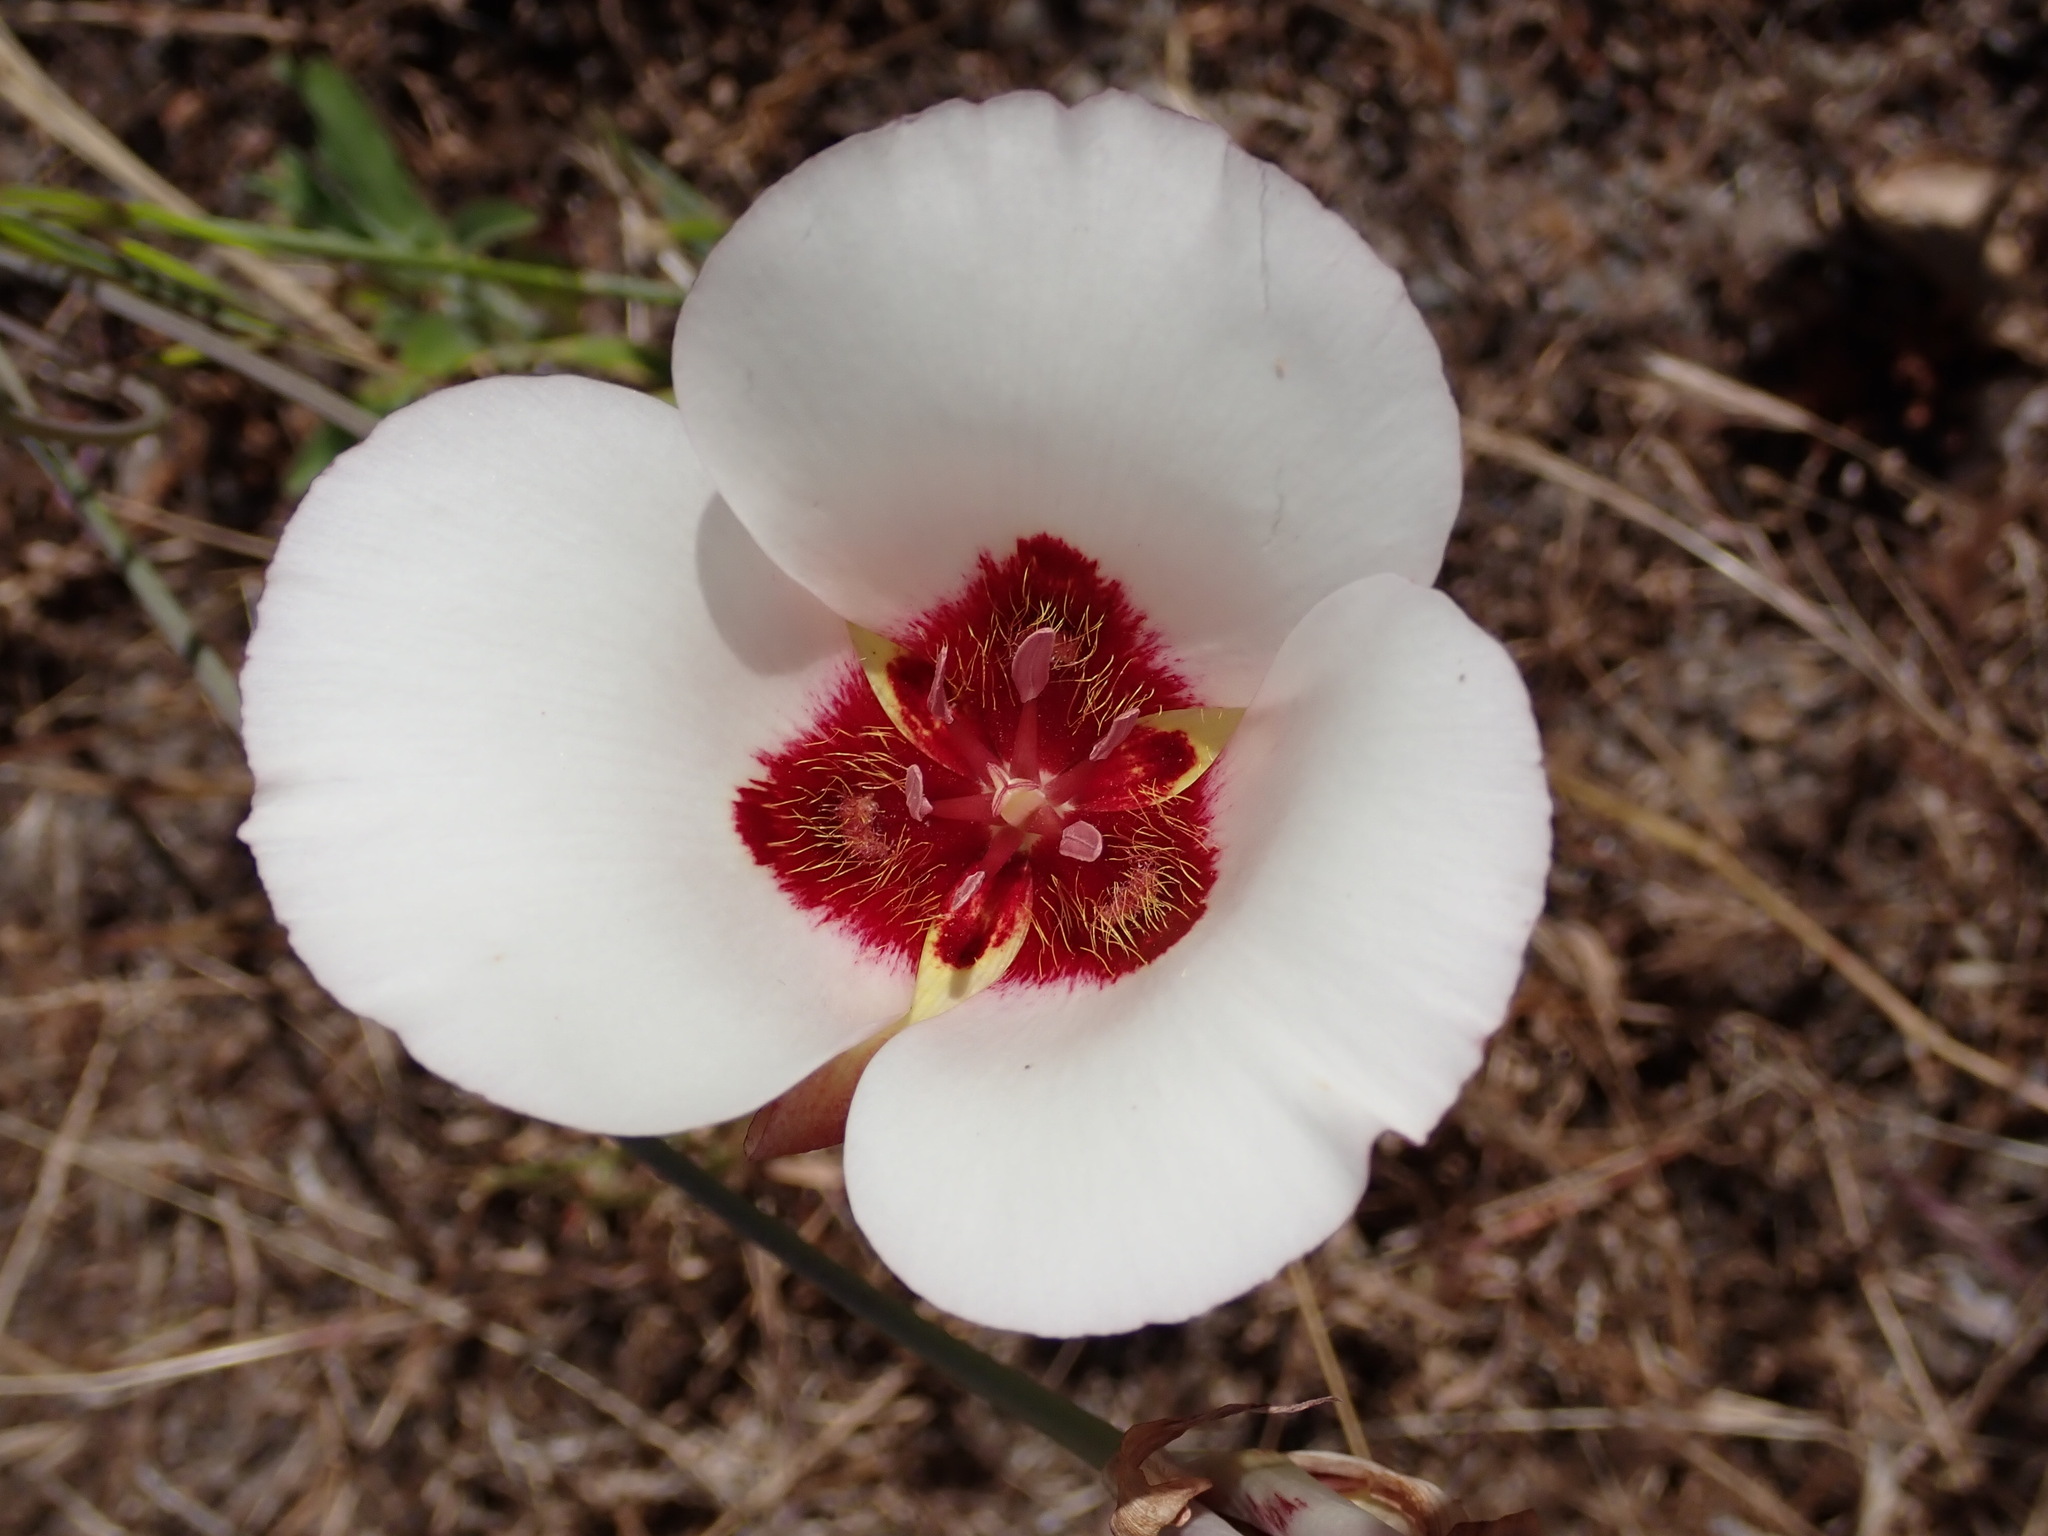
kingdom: Plantae
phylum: Tracheophyta
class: Liliopsida
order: Liliales
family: Liliaceae
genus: Calochortus
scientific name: Calochortus simulans
